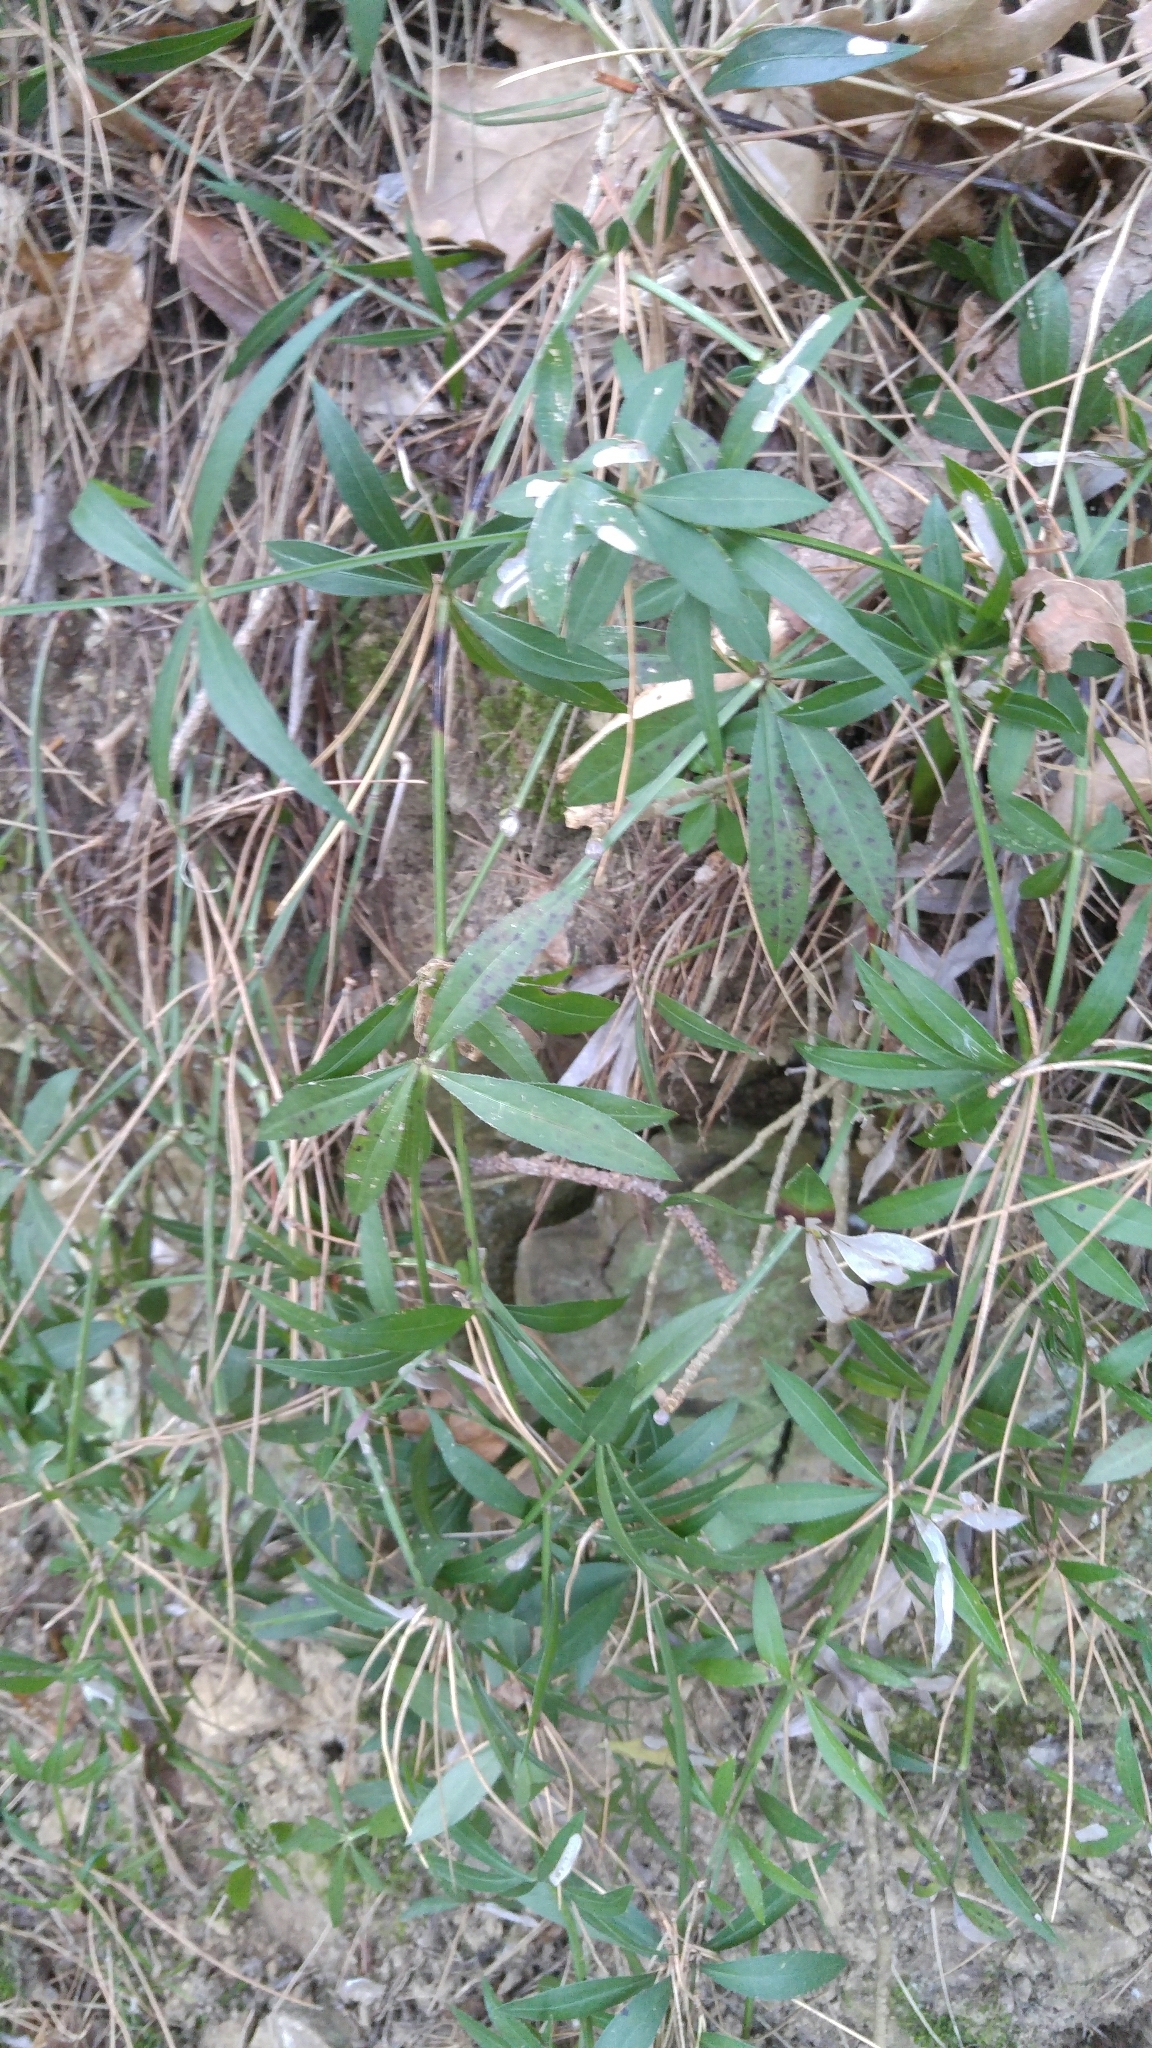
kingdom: Plantae
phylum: Tracheophyta
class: Magnoliopsida
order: Gentianales
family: Rubiaceae
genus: Rubia
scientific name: Rubia peregrina
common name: Wild madder
